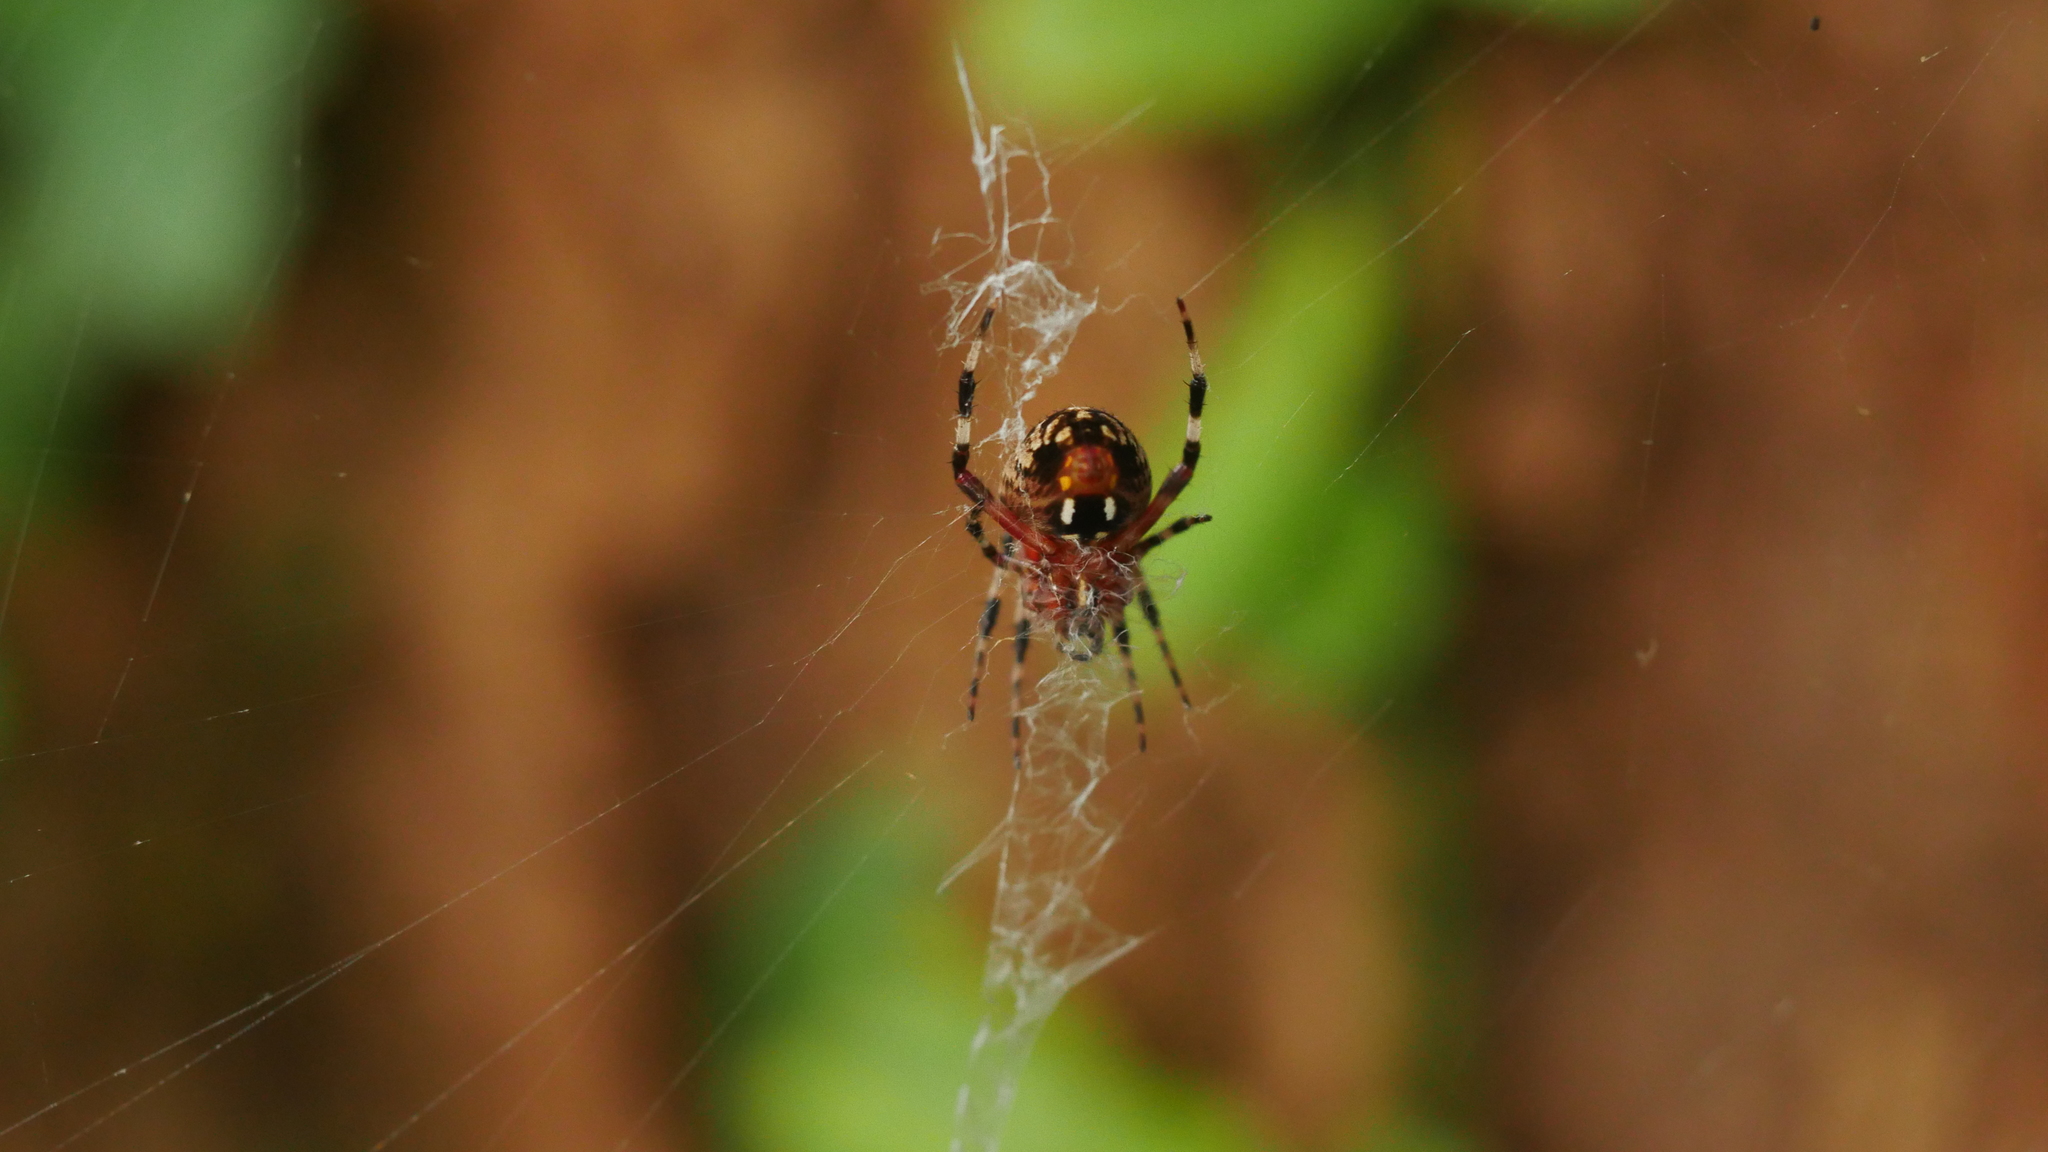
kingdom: Animalia
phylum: Arthropoda
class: Arachnida
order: Araneae
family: Araneidae
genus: Neoscona
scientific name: Neoscona domiciliorum
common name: Red-femured spotted orbweaver
